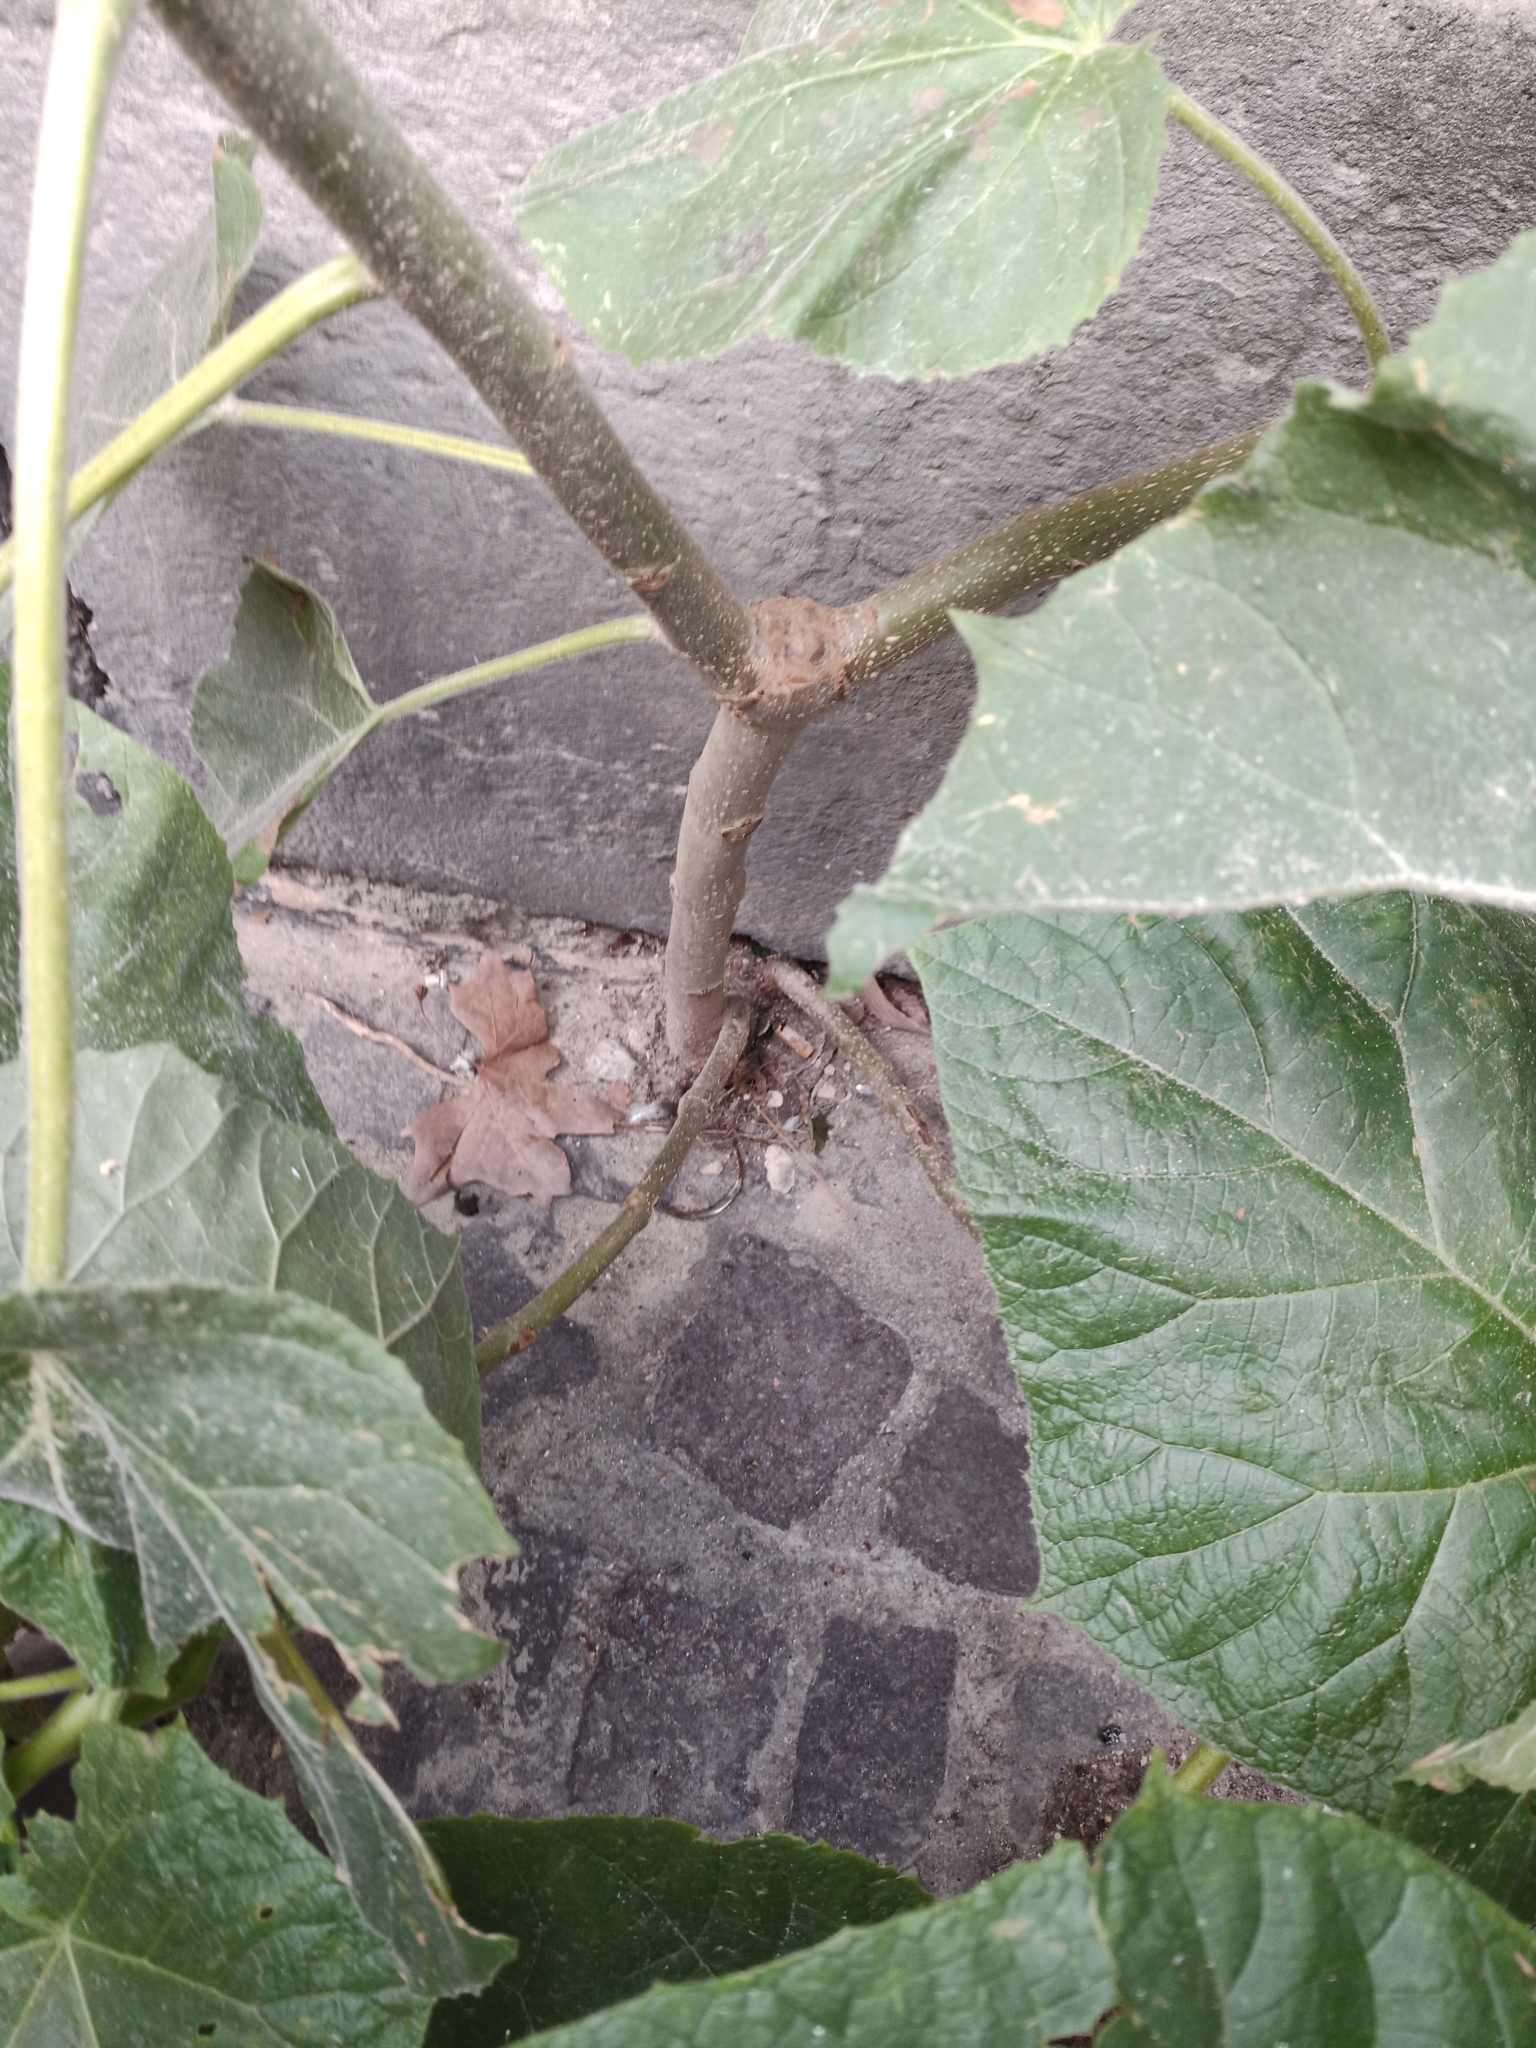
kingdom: Plantae
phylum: Tracheophyta
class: Magnoliopsida
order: Lamiales
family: Paulowniaceae
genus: Paulownia
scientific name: Paulownia tomentosa
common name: Foxglove-tree
